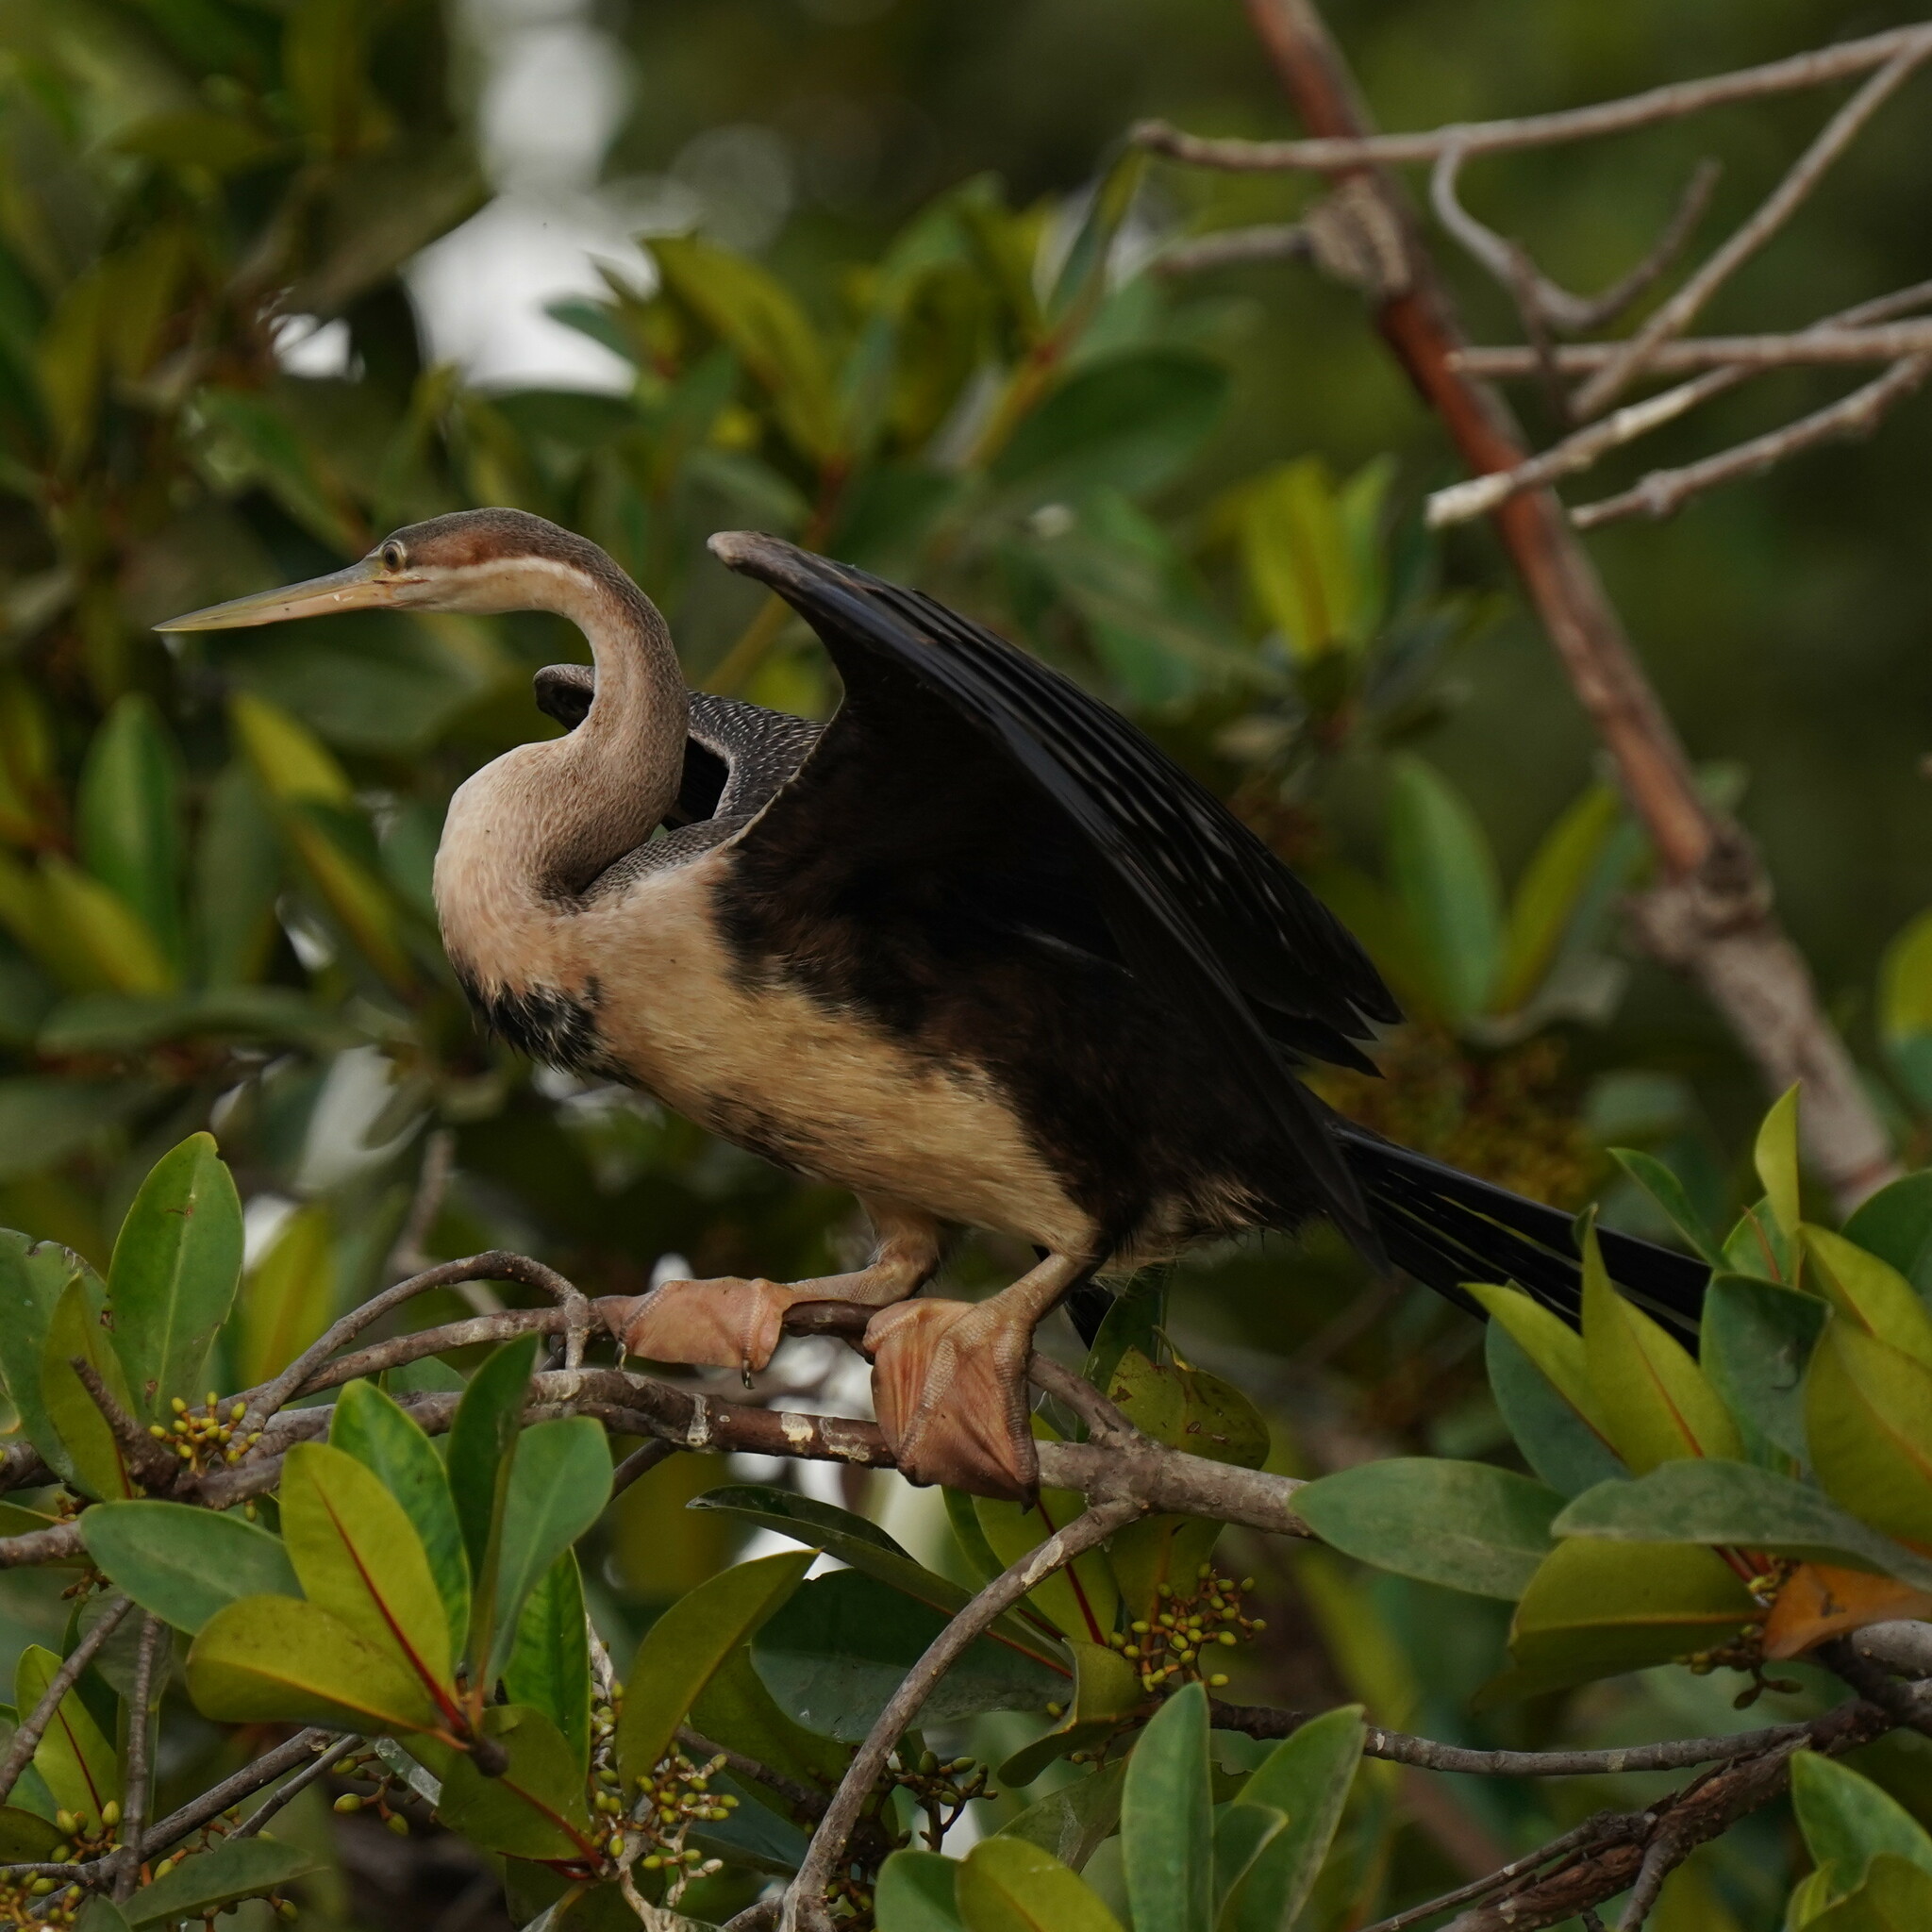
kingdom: Animalia
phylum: Chordata
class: Aves
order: Suliformes
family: Anhingidae
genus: Anhinga
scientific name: Anhinga rufa
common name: African darter
